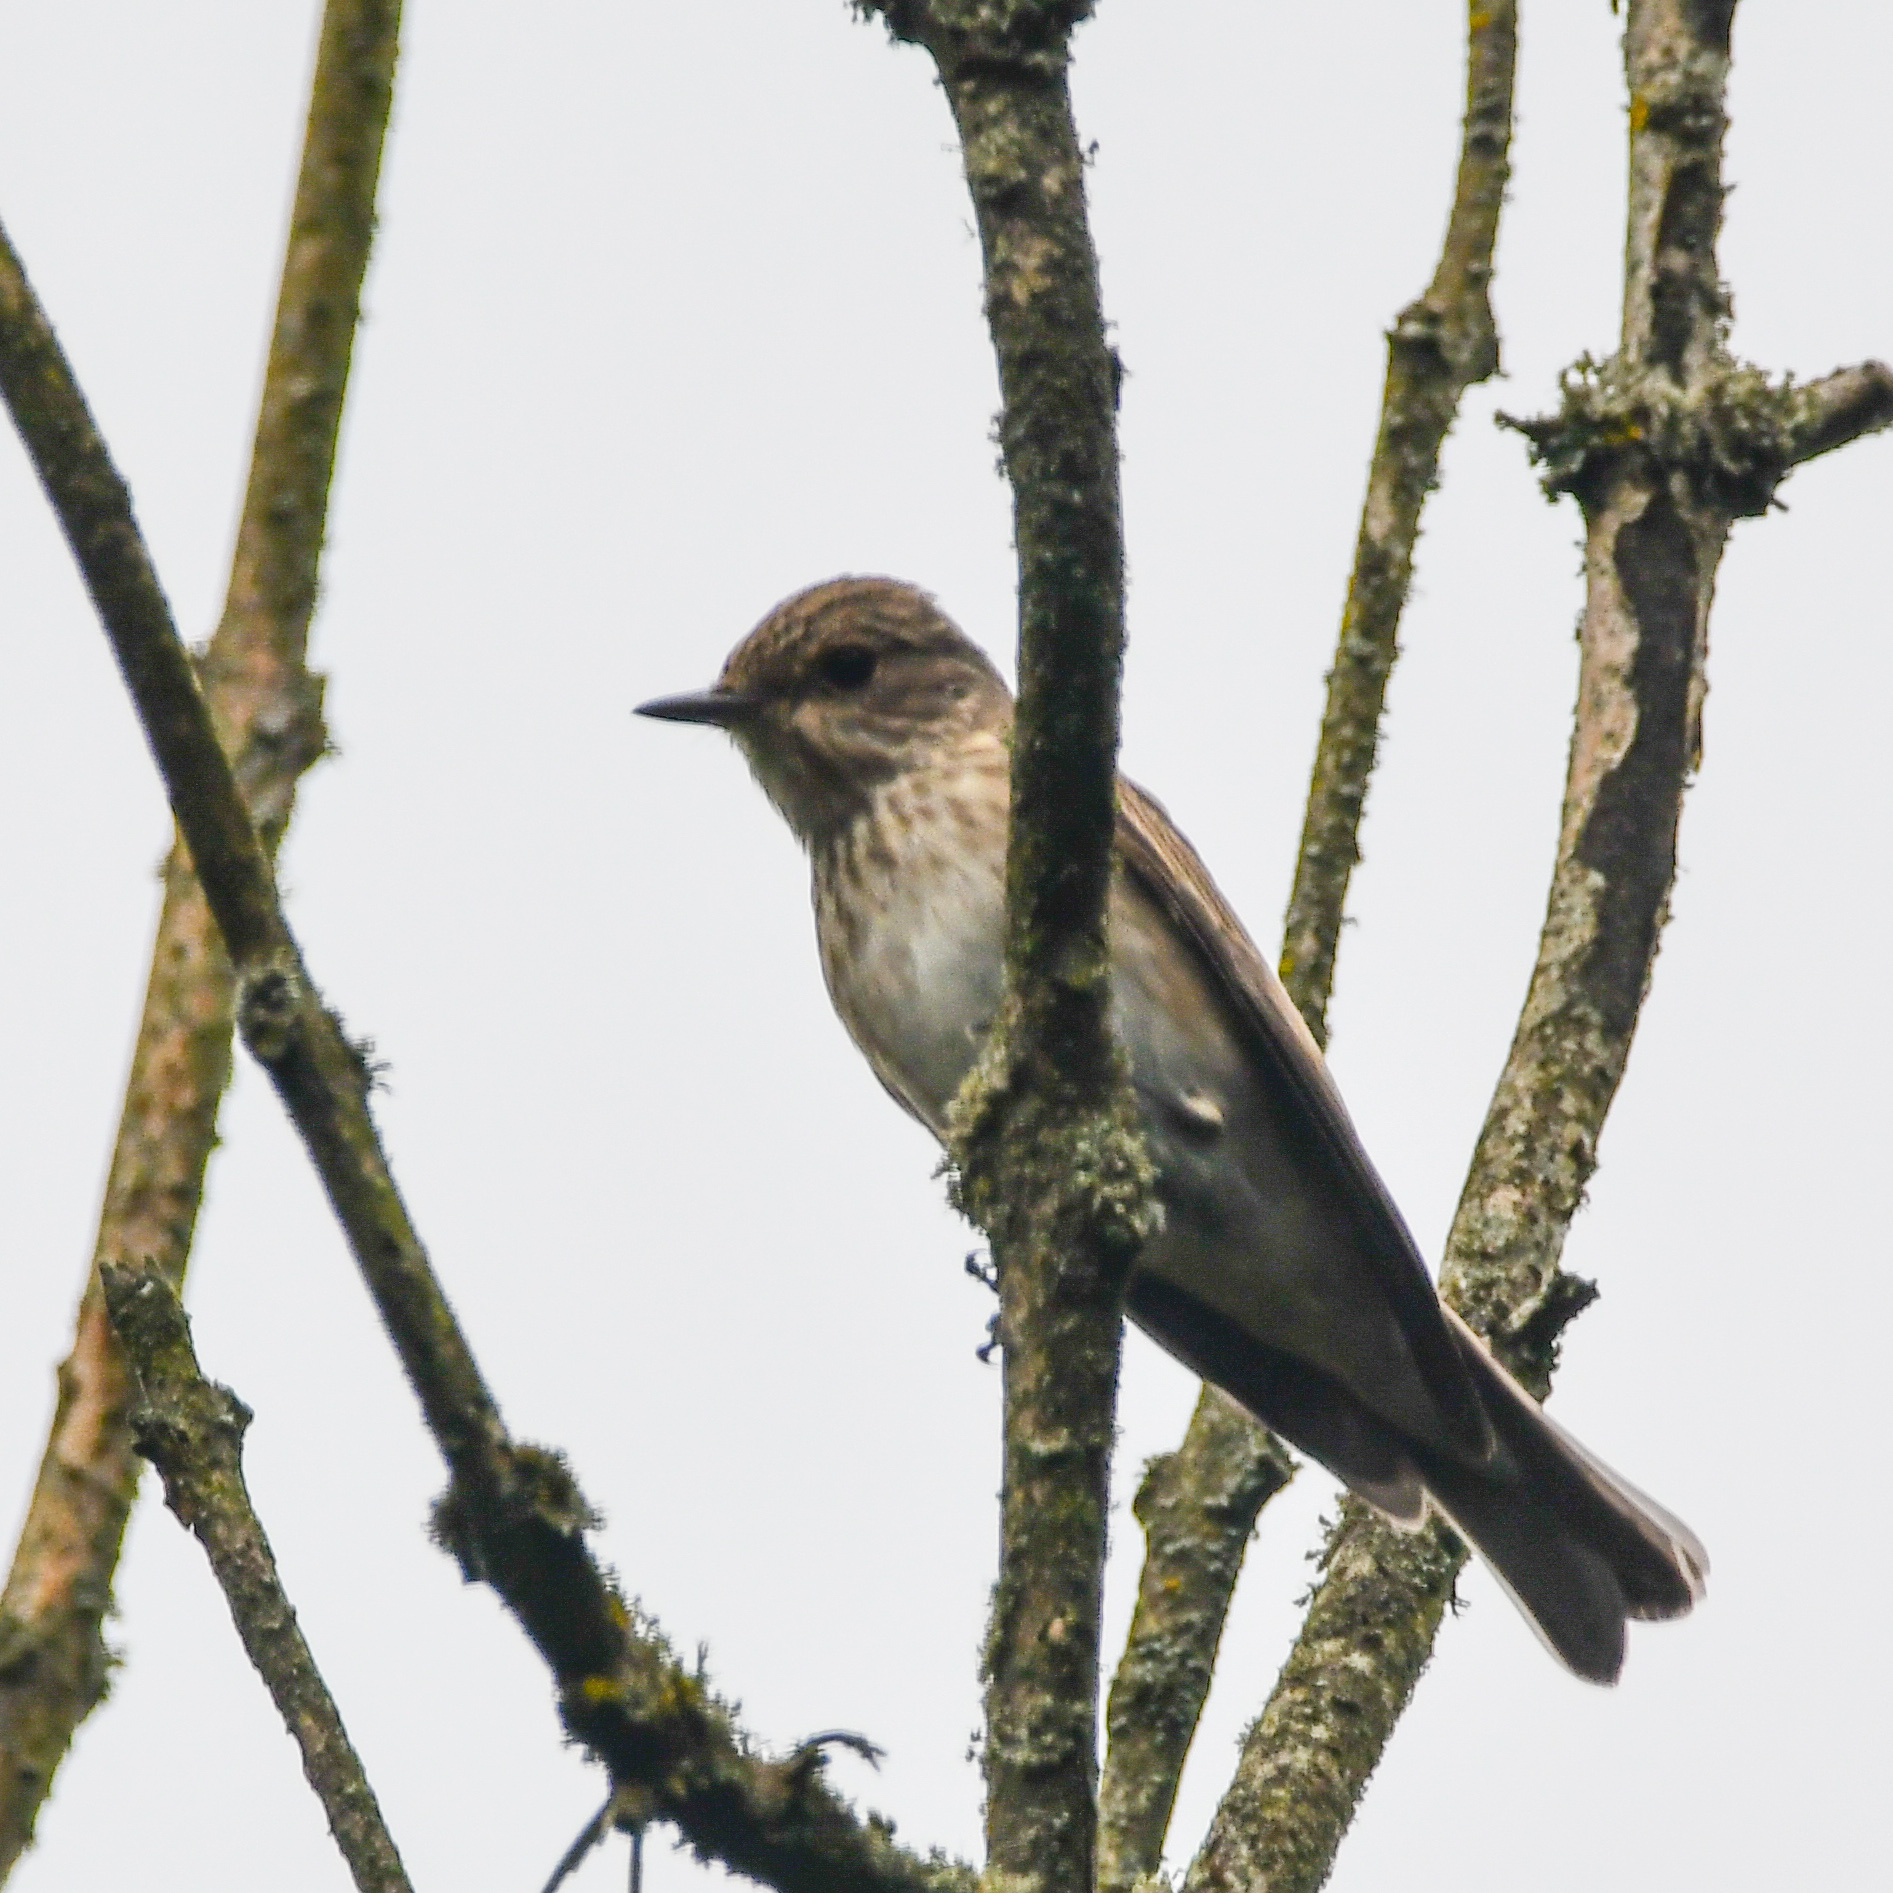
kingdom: Animalia
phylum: Chordata
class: Aves
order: Passeriformes
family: Muscicapidae
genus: Muscicapa
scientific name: Muscicapa striata
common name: Spotted flycatcher
